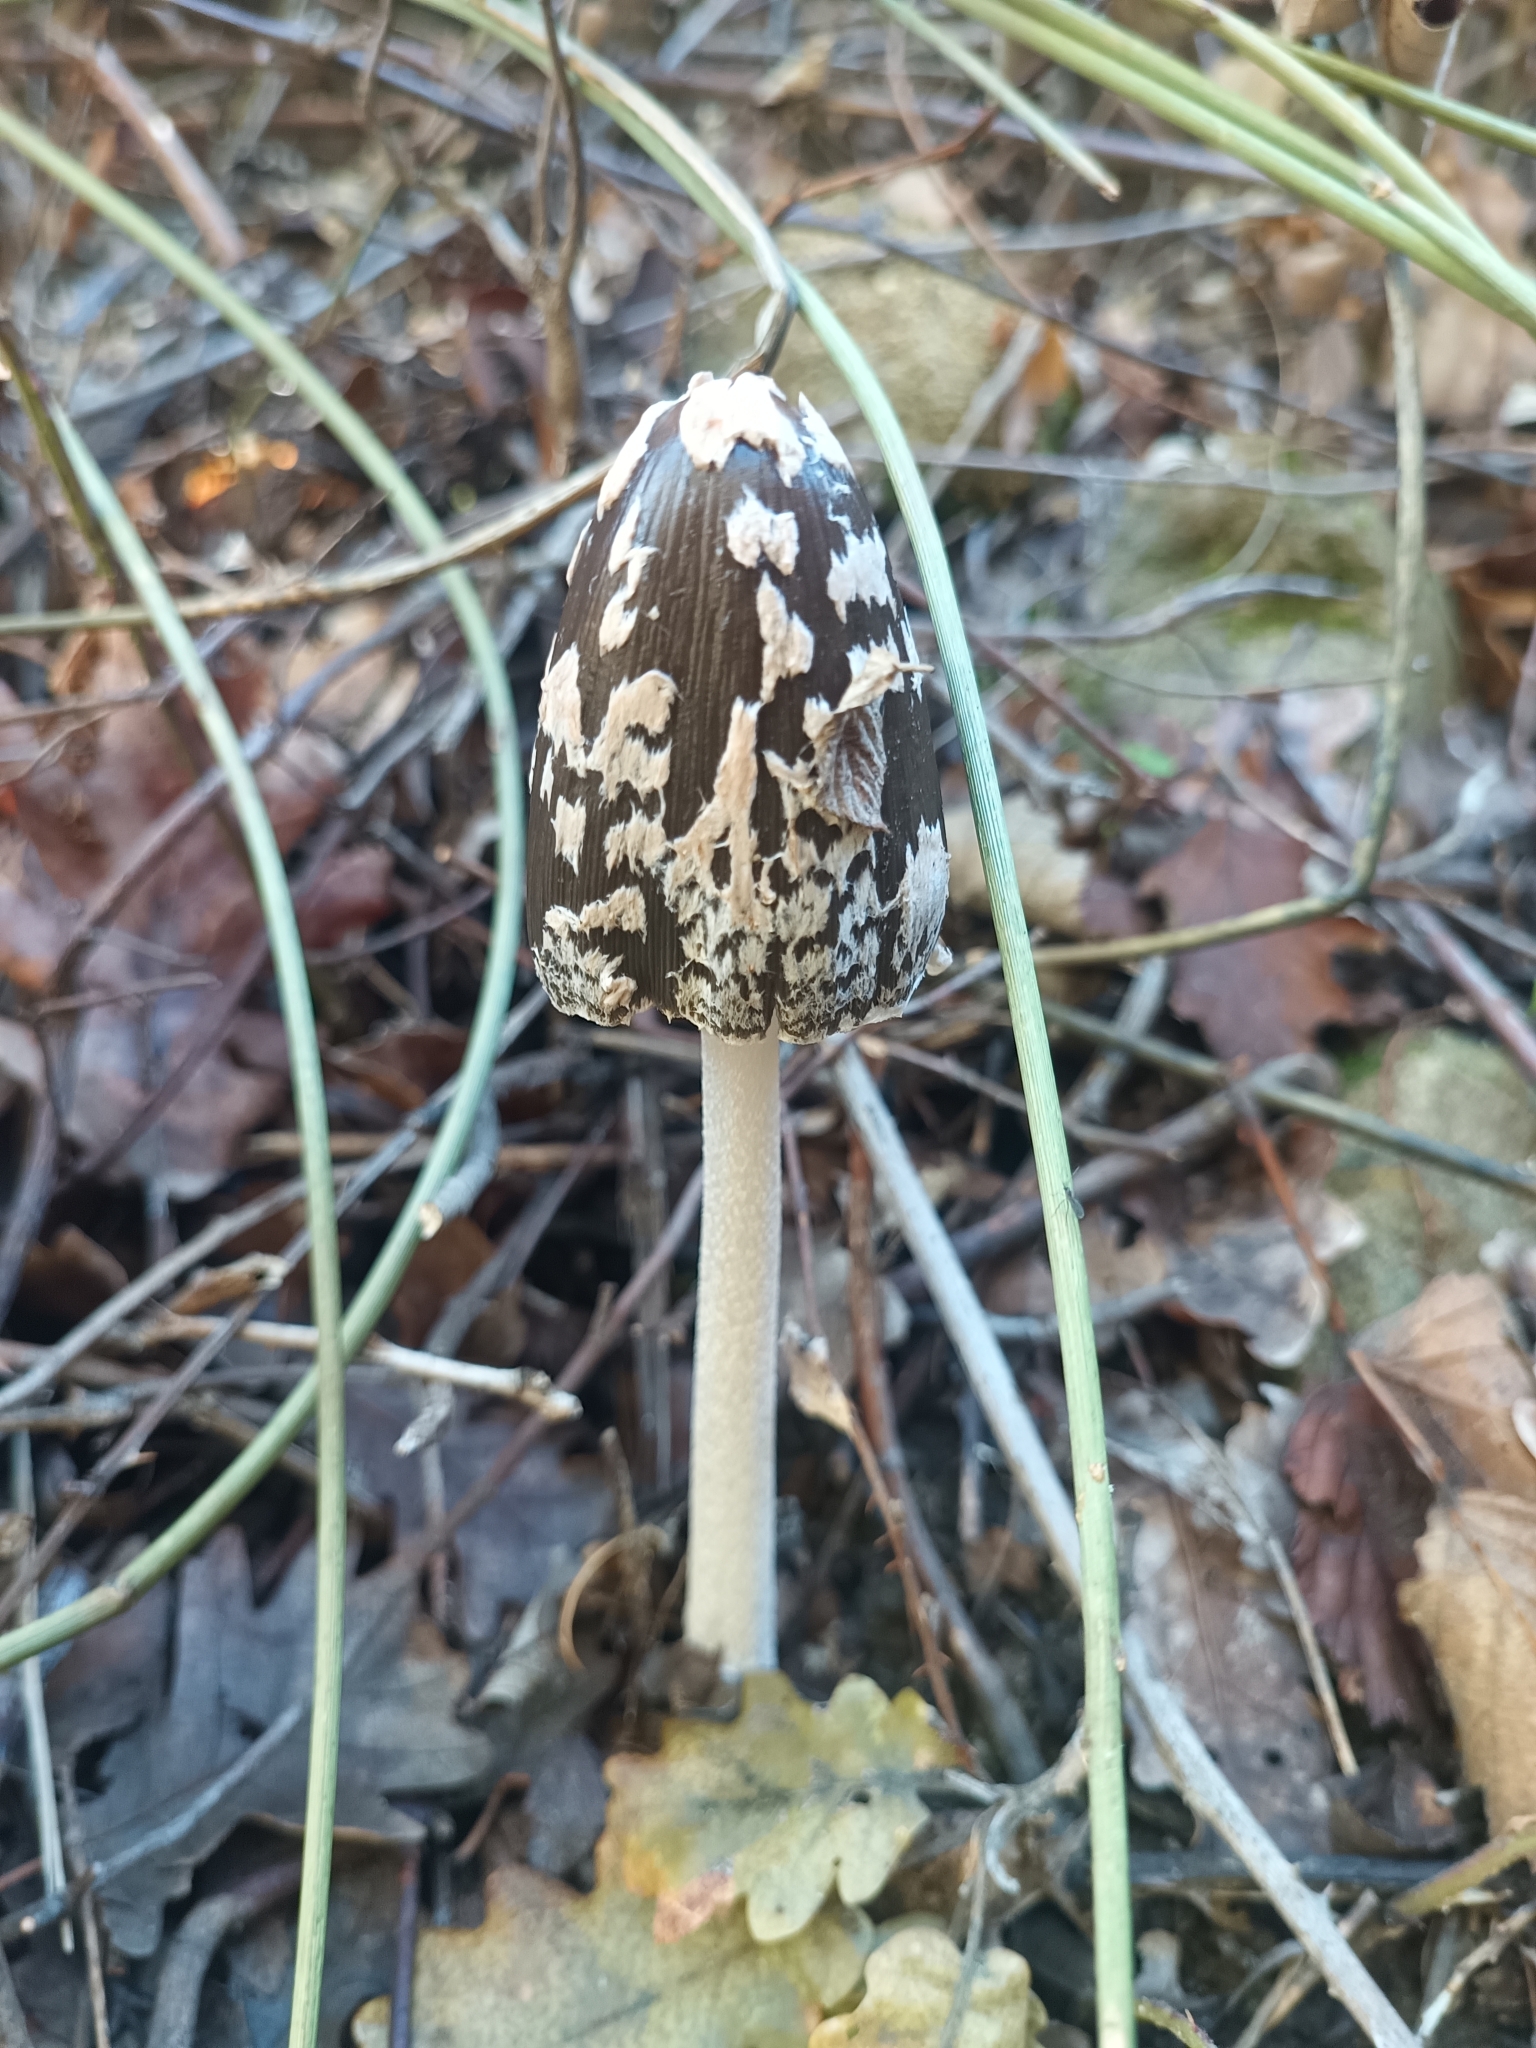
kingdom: Fungi
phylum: Basidiomycota
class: Agaricomycetes
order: Agaricales
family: Psathyrellaceae
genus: Coprinopsis
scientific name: Coprinopsis picacea
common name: Magpie inkcap
